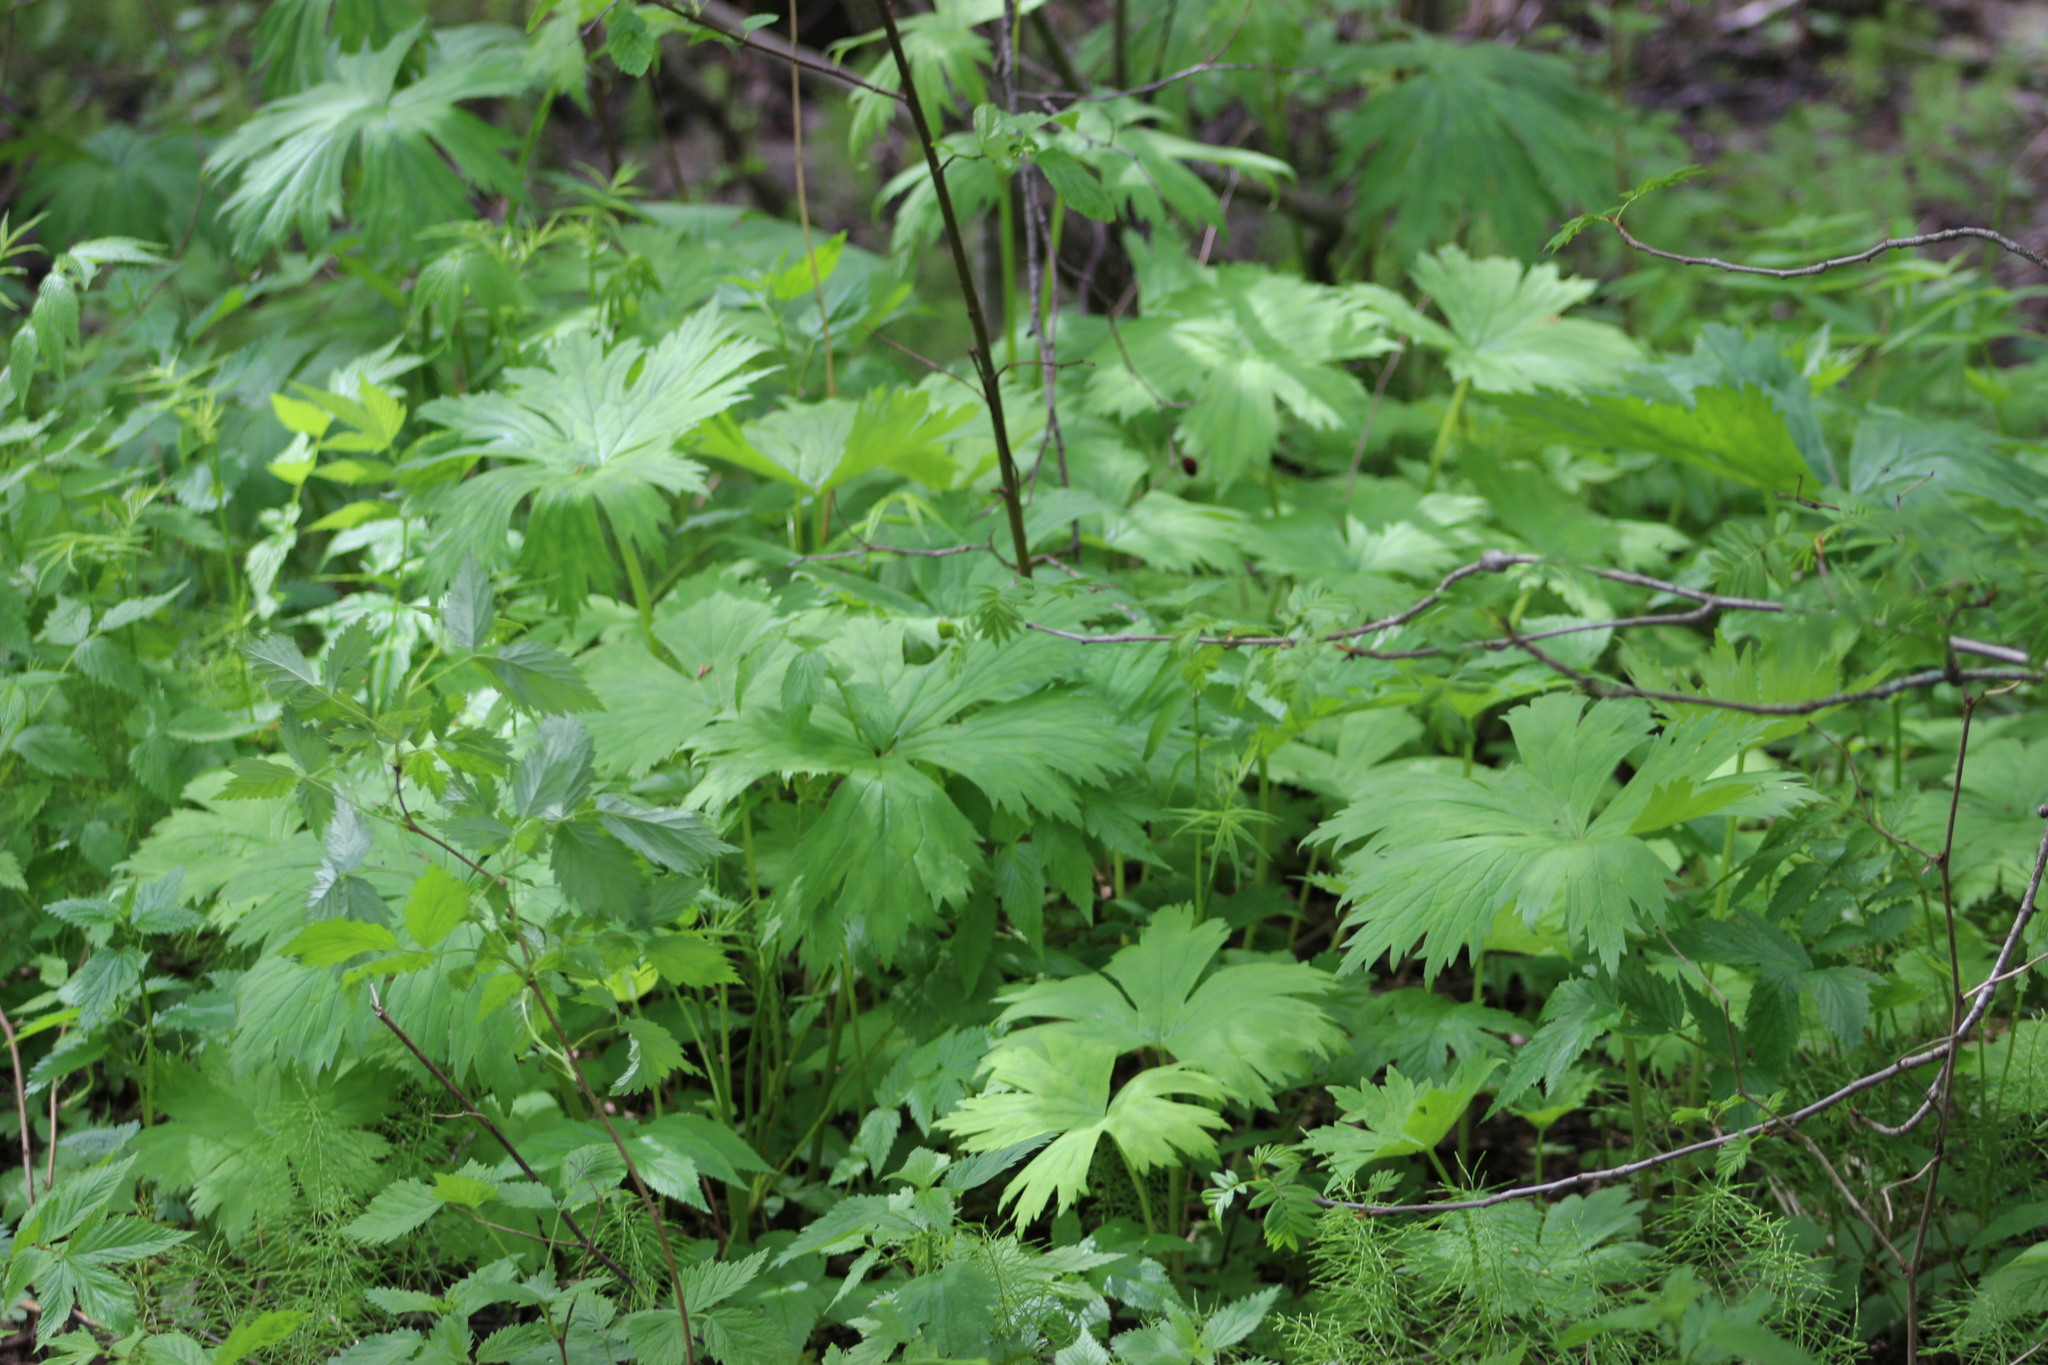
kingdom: Plantae
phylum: Tracheophyta
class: Magnoliopsida
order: Ranunculales
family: Ranunculaceae
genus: Aconitum
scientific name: Aconitum septentrionale
